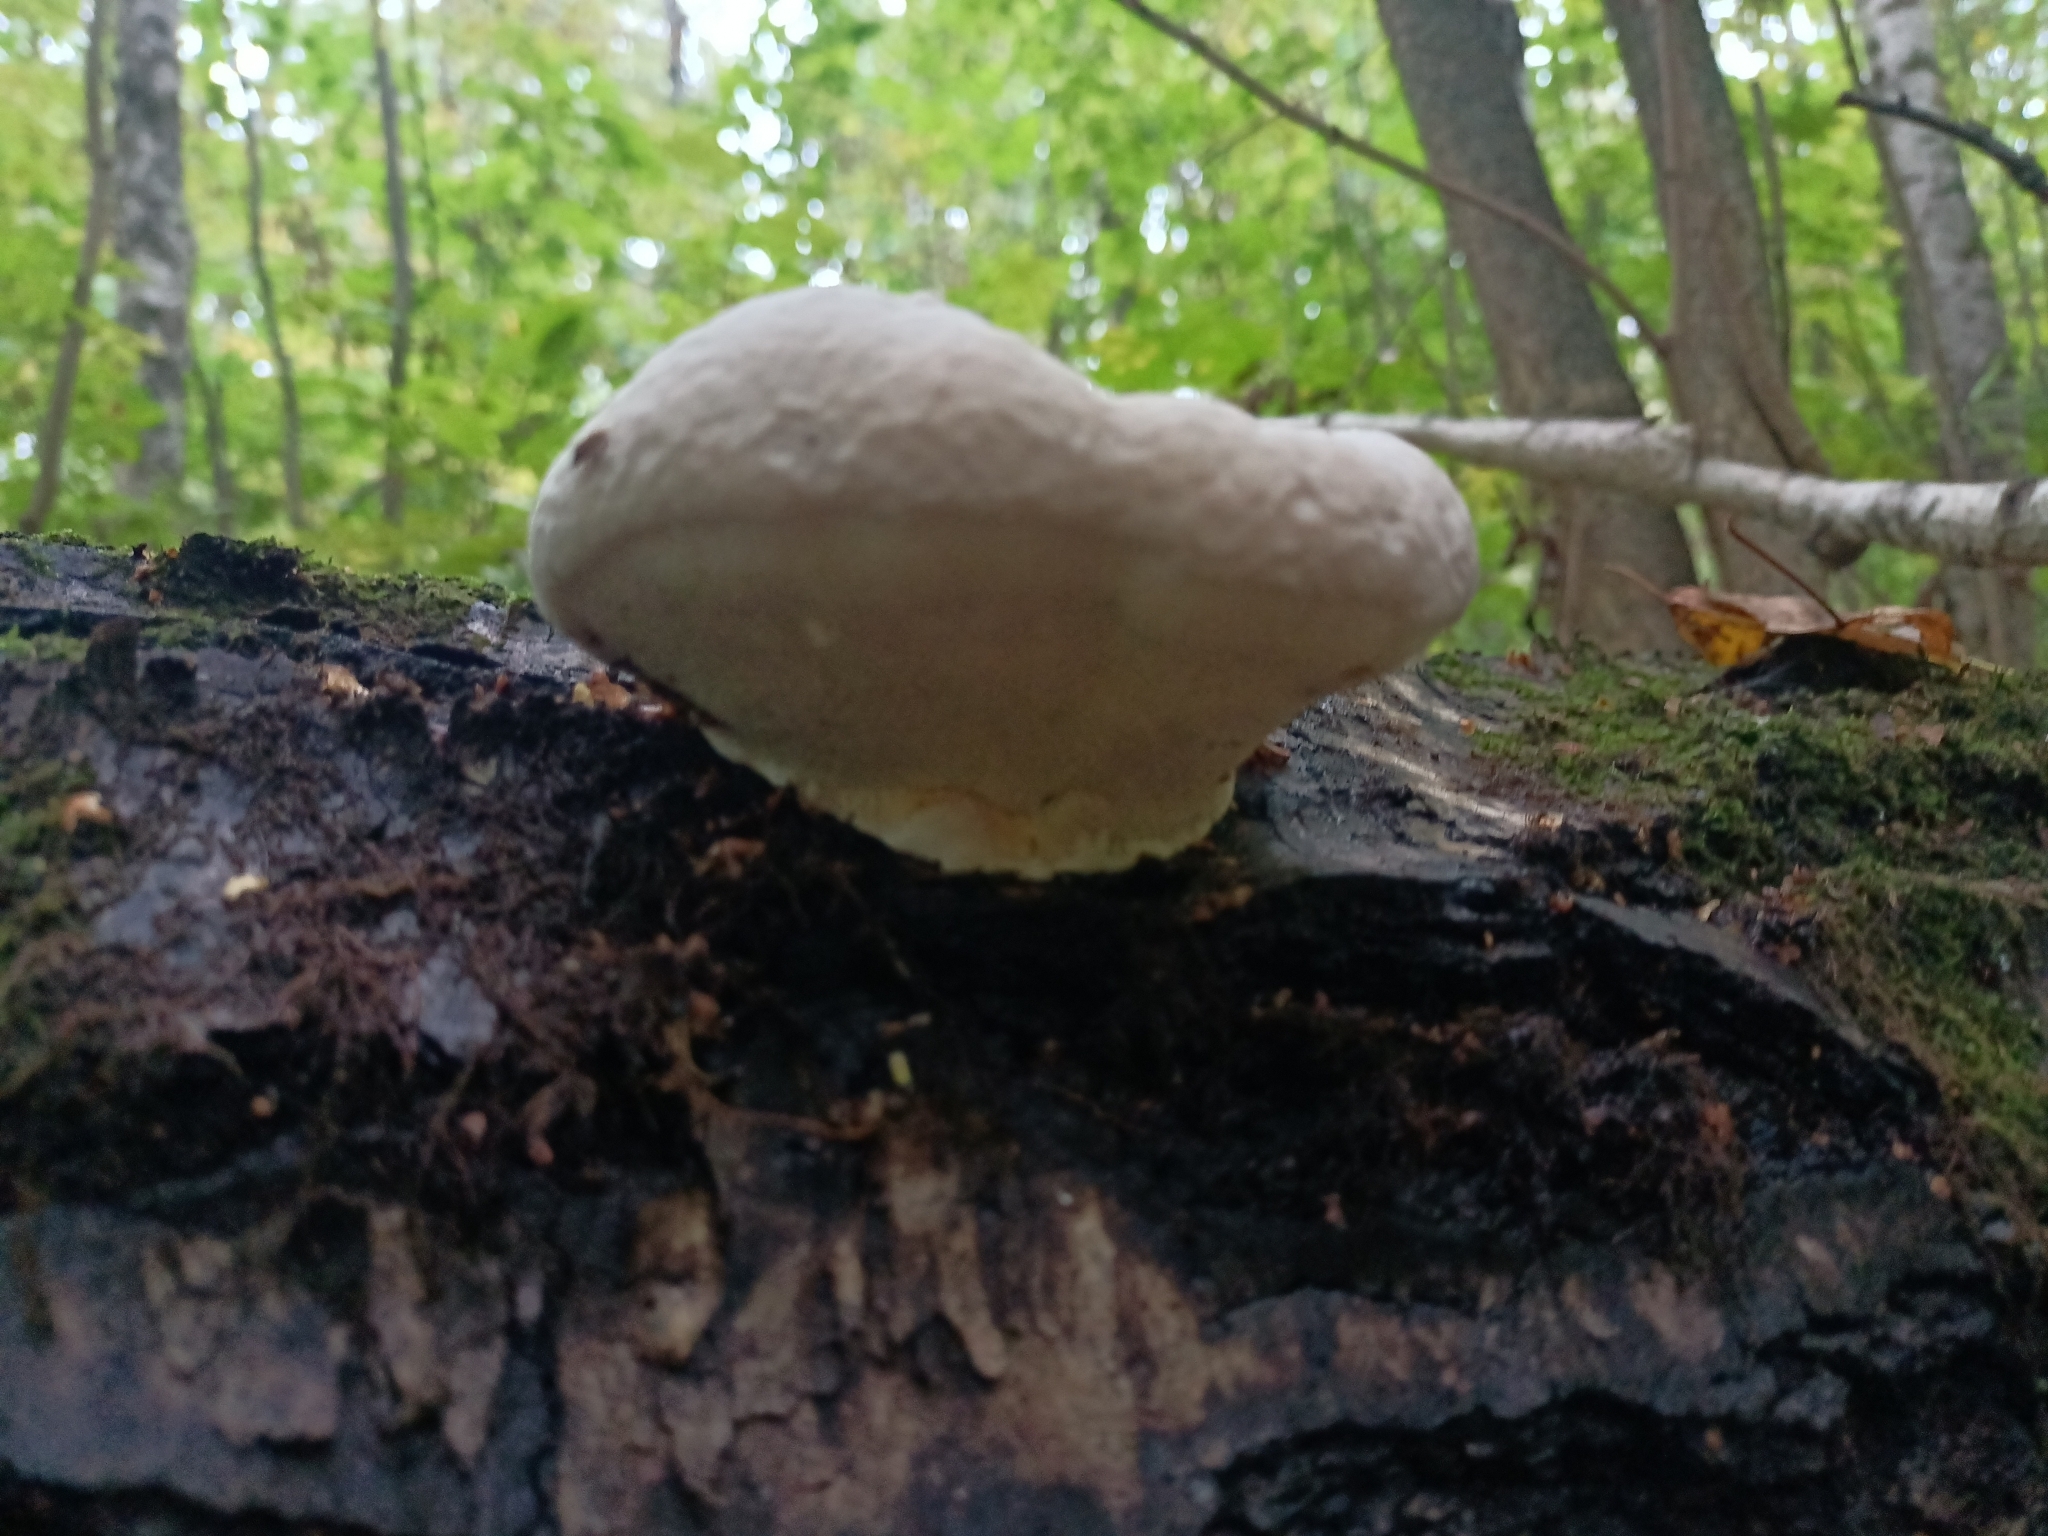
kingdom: Fungi
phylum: Basidiomycota
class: Agaricomycetes
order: Polyporales
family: Fomitopsidaceae
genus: Fomitopsis
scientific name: Fomitopsis pinicola
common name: Red-belted bracket
